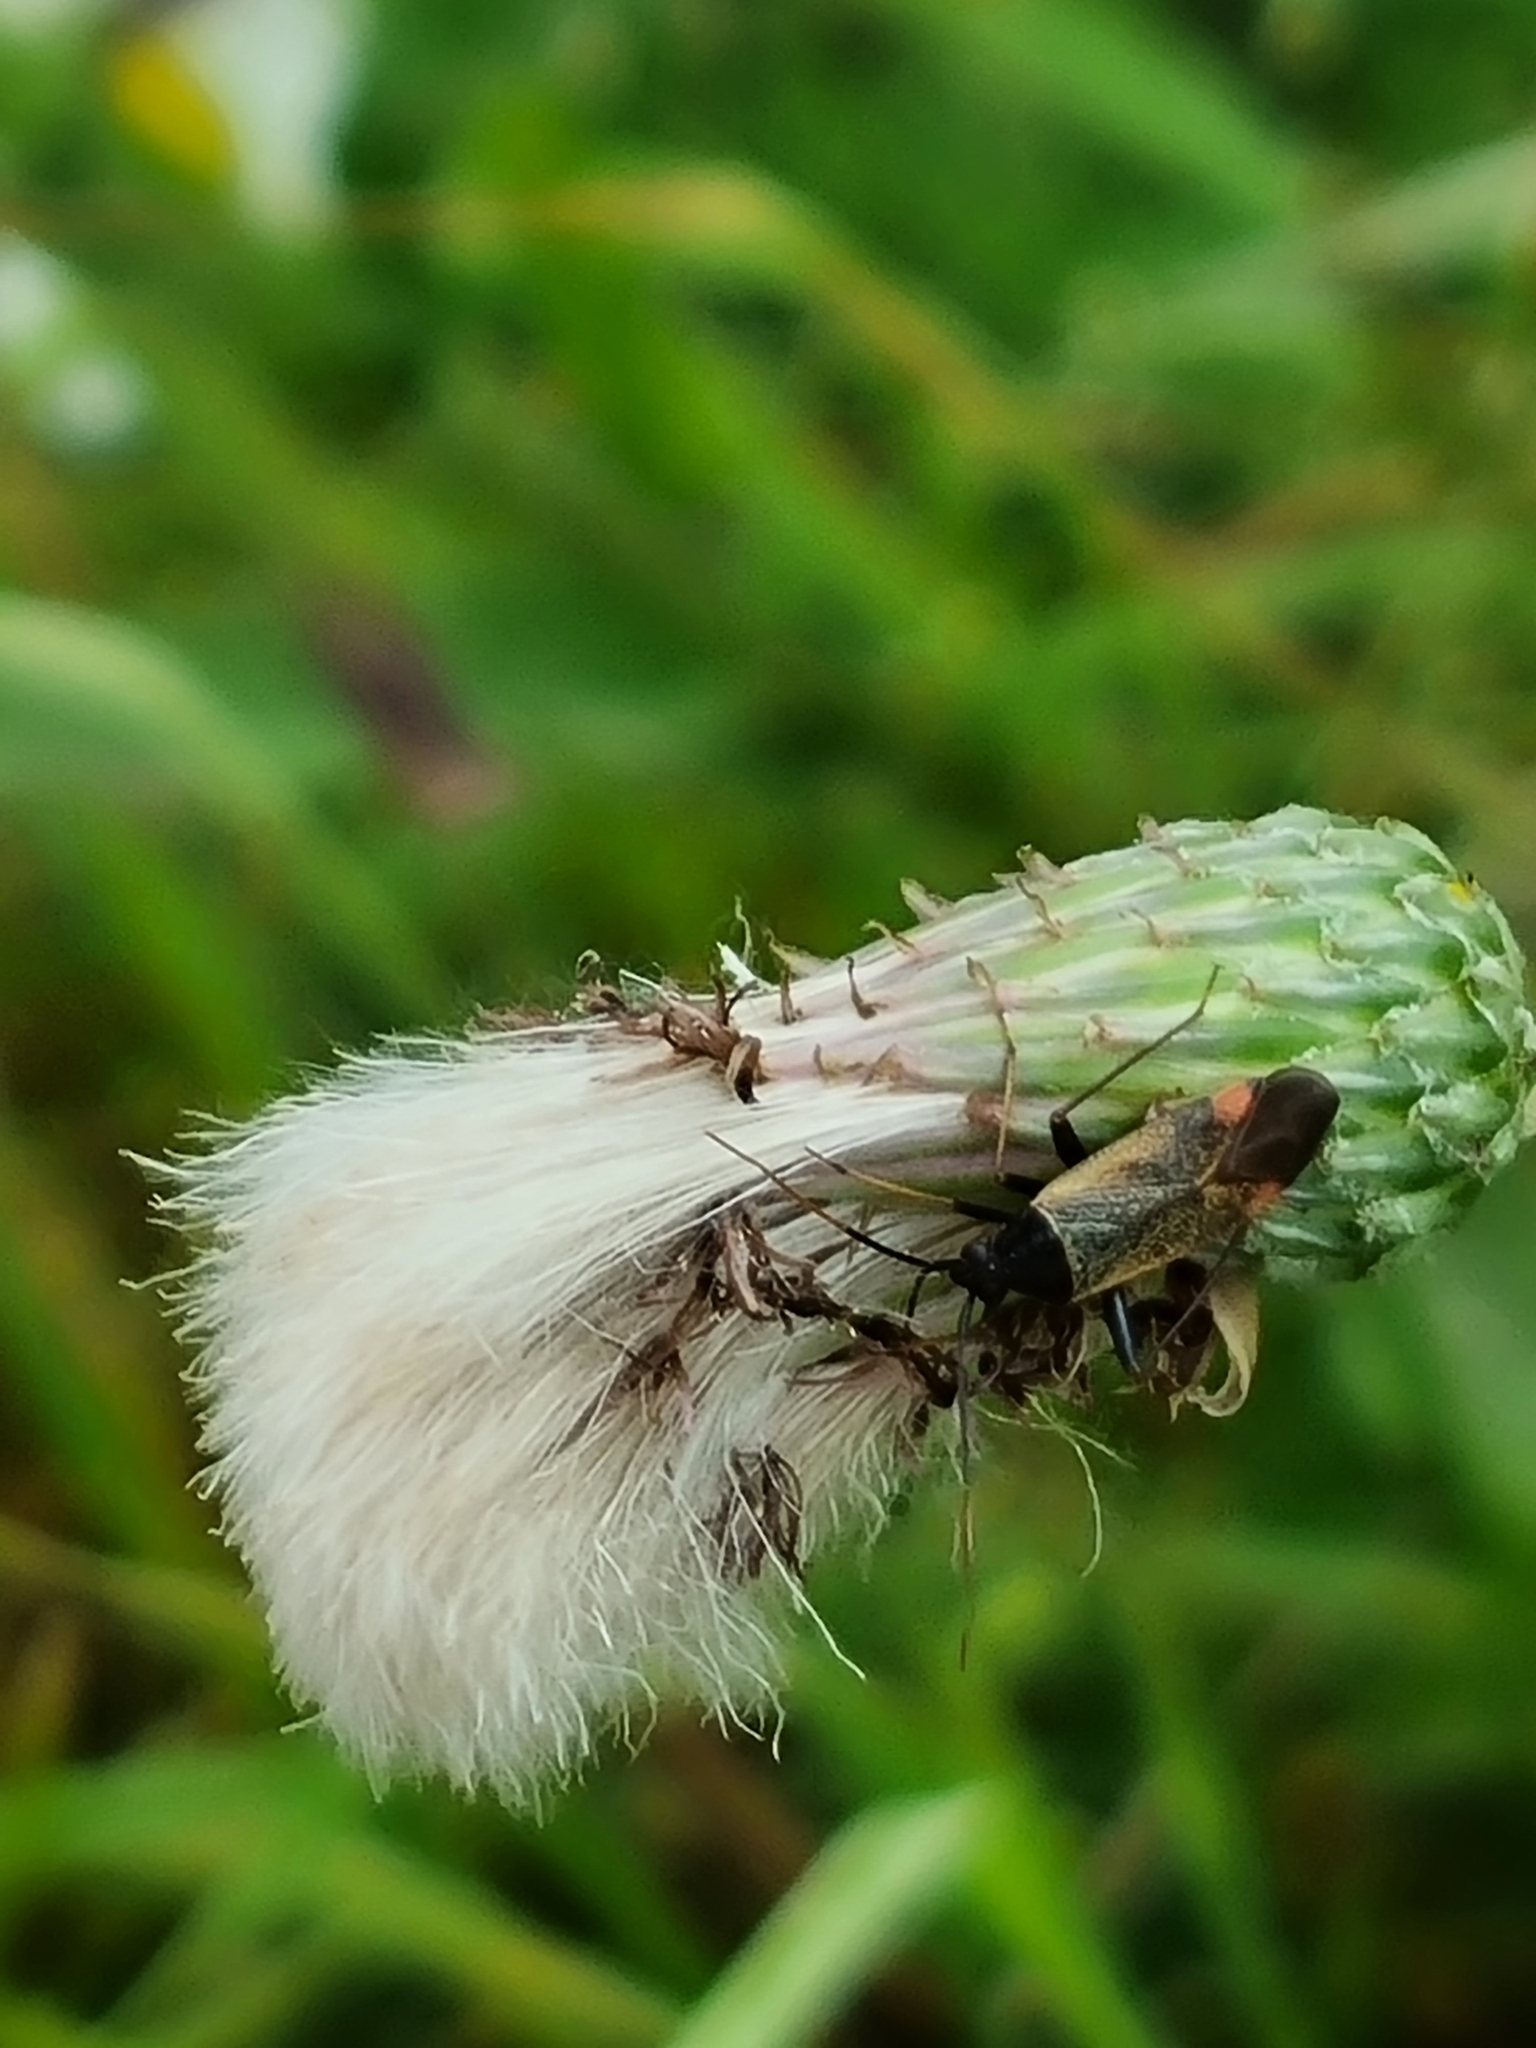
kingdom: Animalia
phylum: Arthropoda
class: Insecta
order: Hemiptera
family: Miridae
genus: Adelphocoris
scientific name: Adelphocoris seticornis
